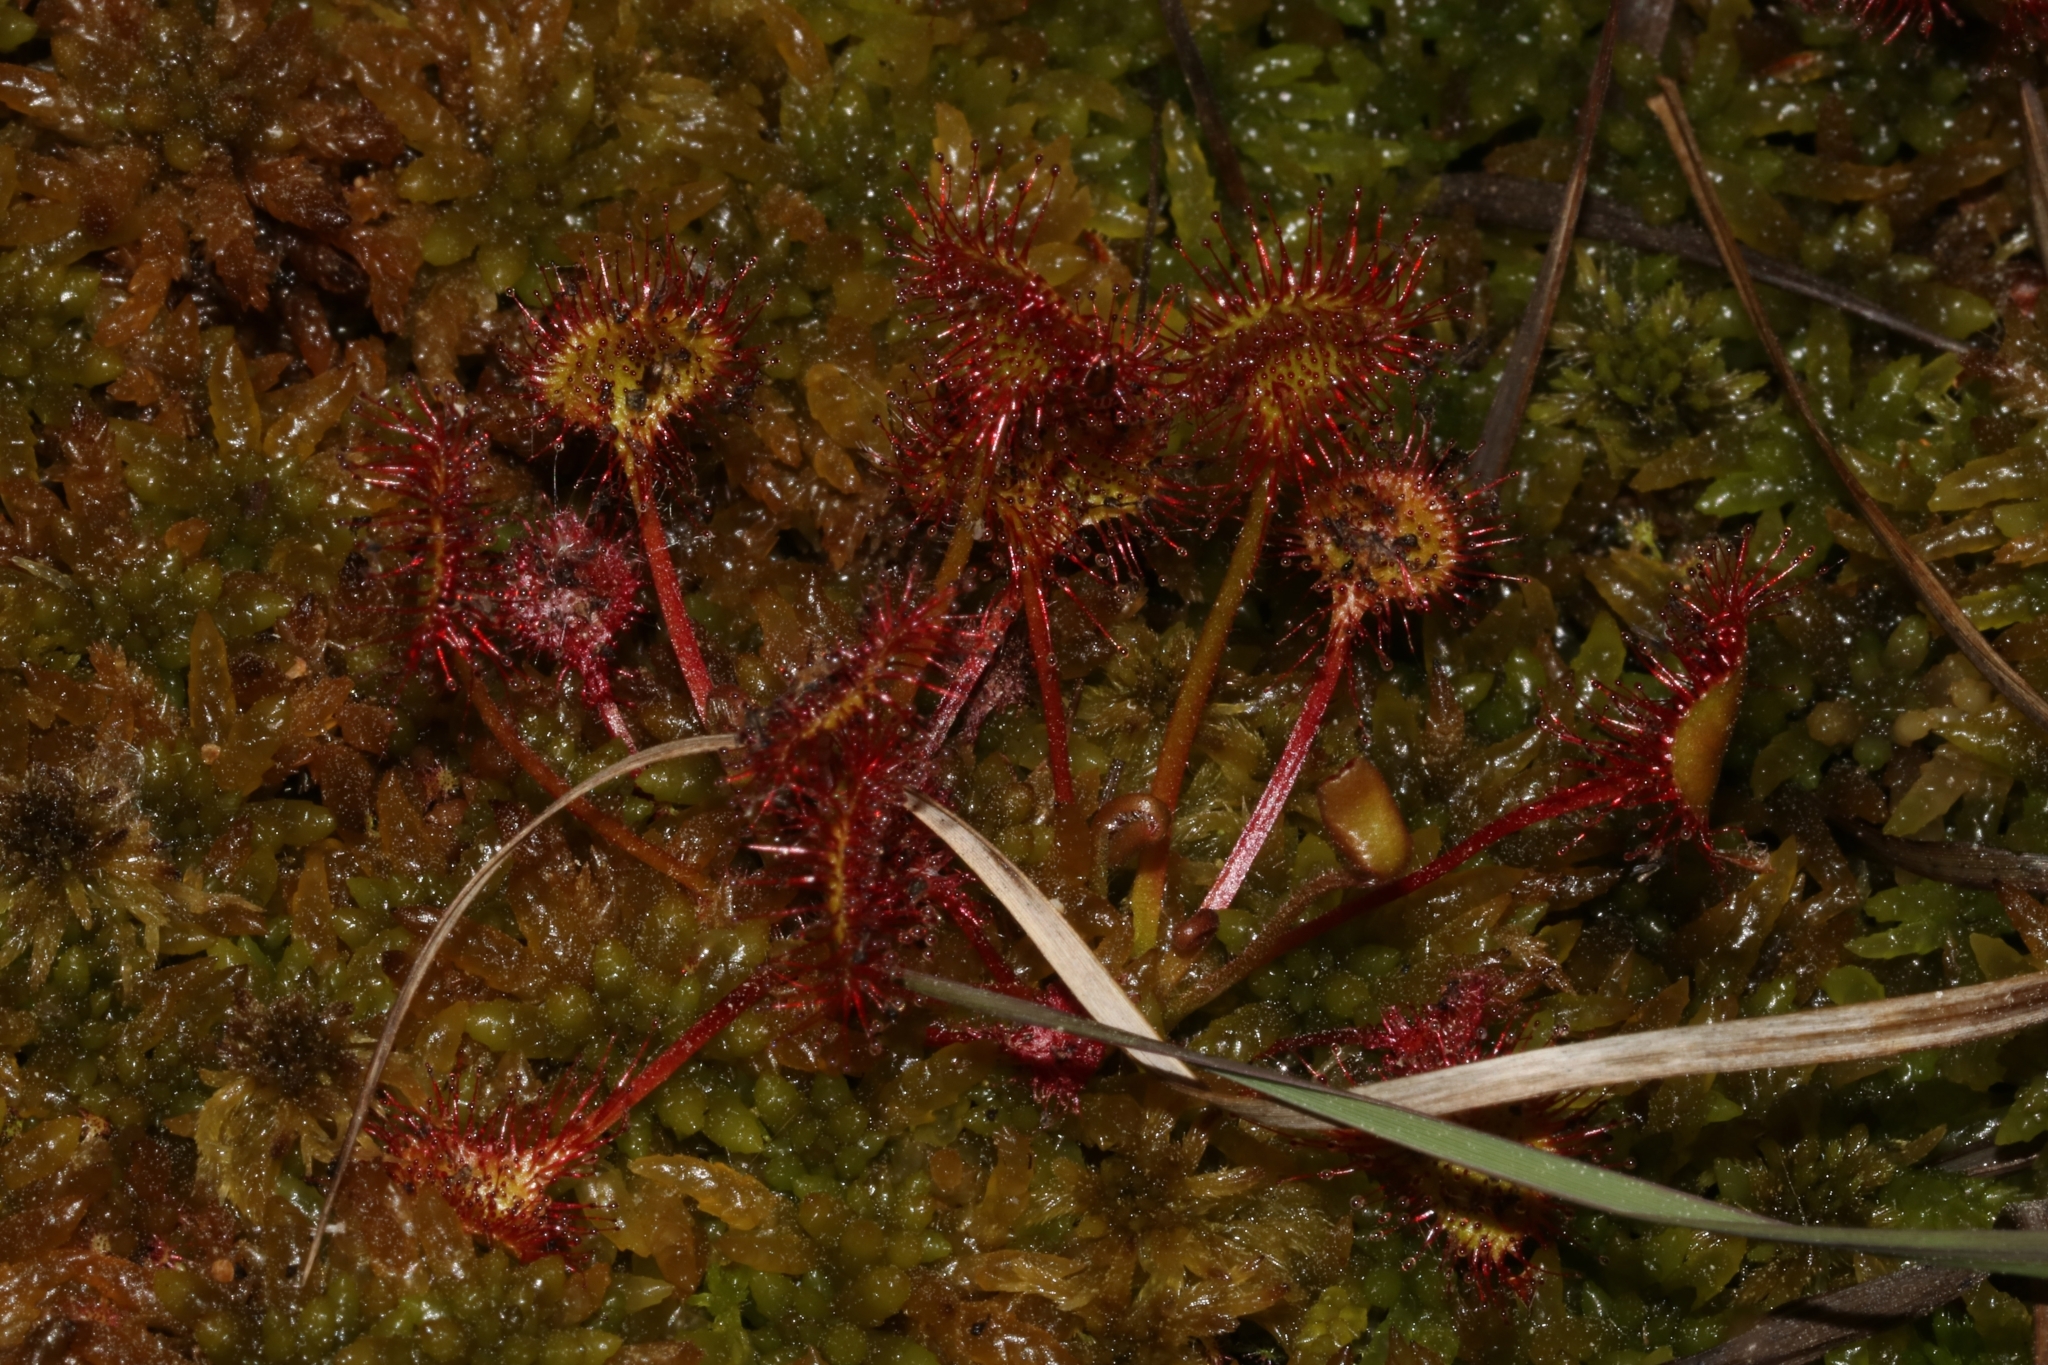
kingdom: Plantae
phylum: Tracheophyta
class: Magnoliopsida
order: Caryophyllales
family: Droseraceae
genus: Drosera
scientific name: Drosera rotundifolia
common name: Round-leaved sundew
